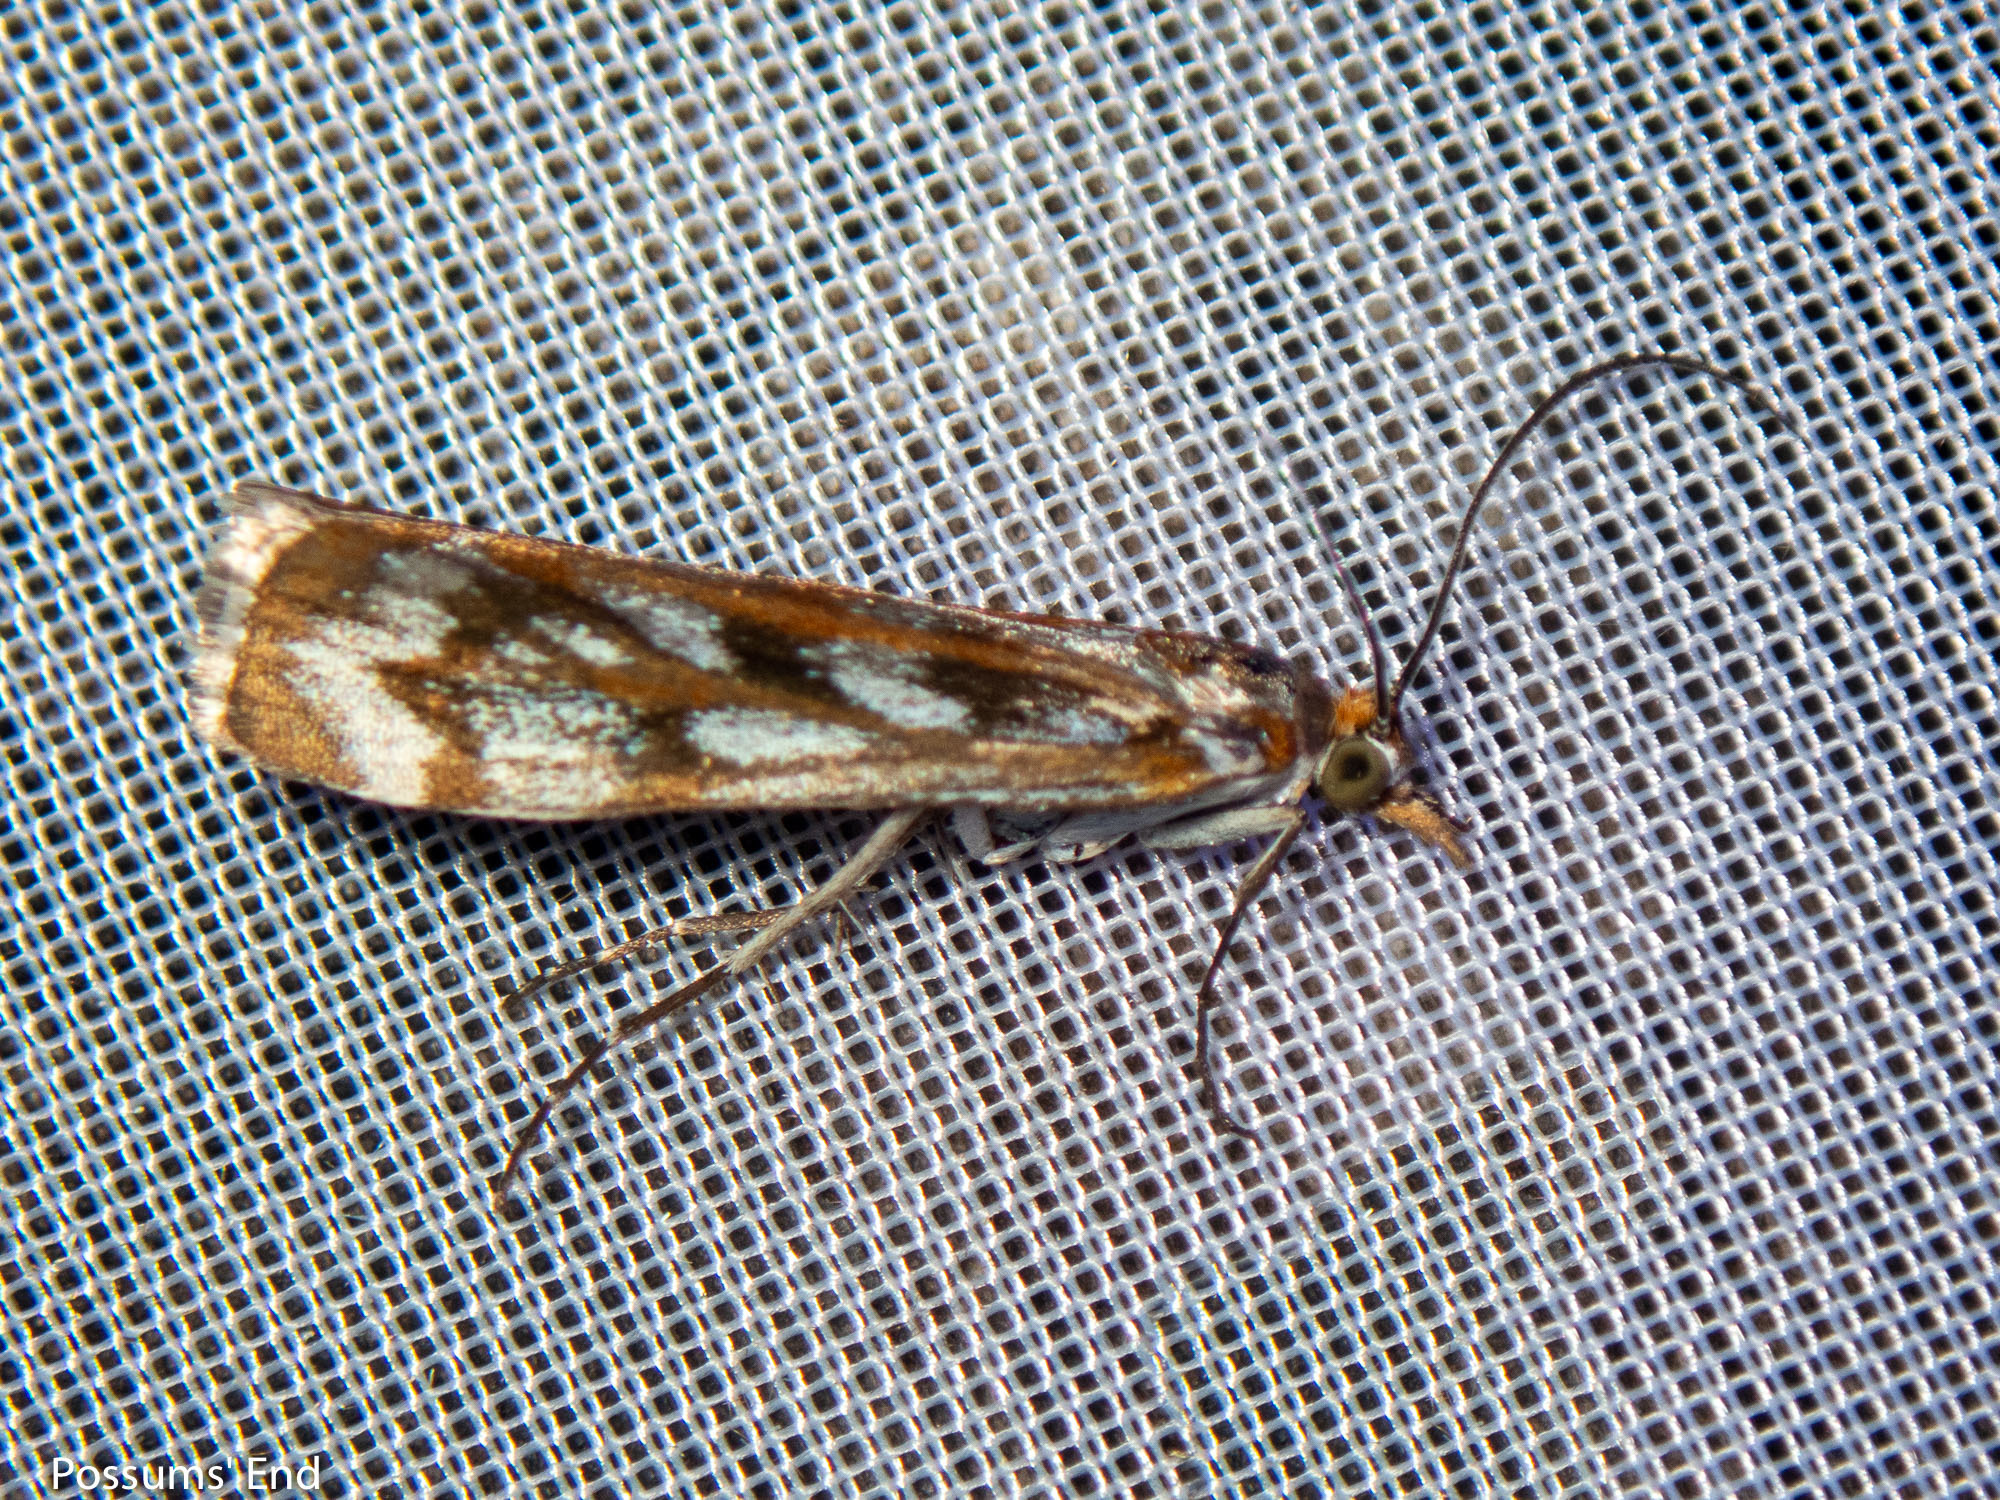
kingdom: Animalia
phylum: Arthropoda
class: Insecta
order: Lepidoptera
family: Crambidae
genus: Orocrambus
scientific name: Orocrambus xanthogrammus
